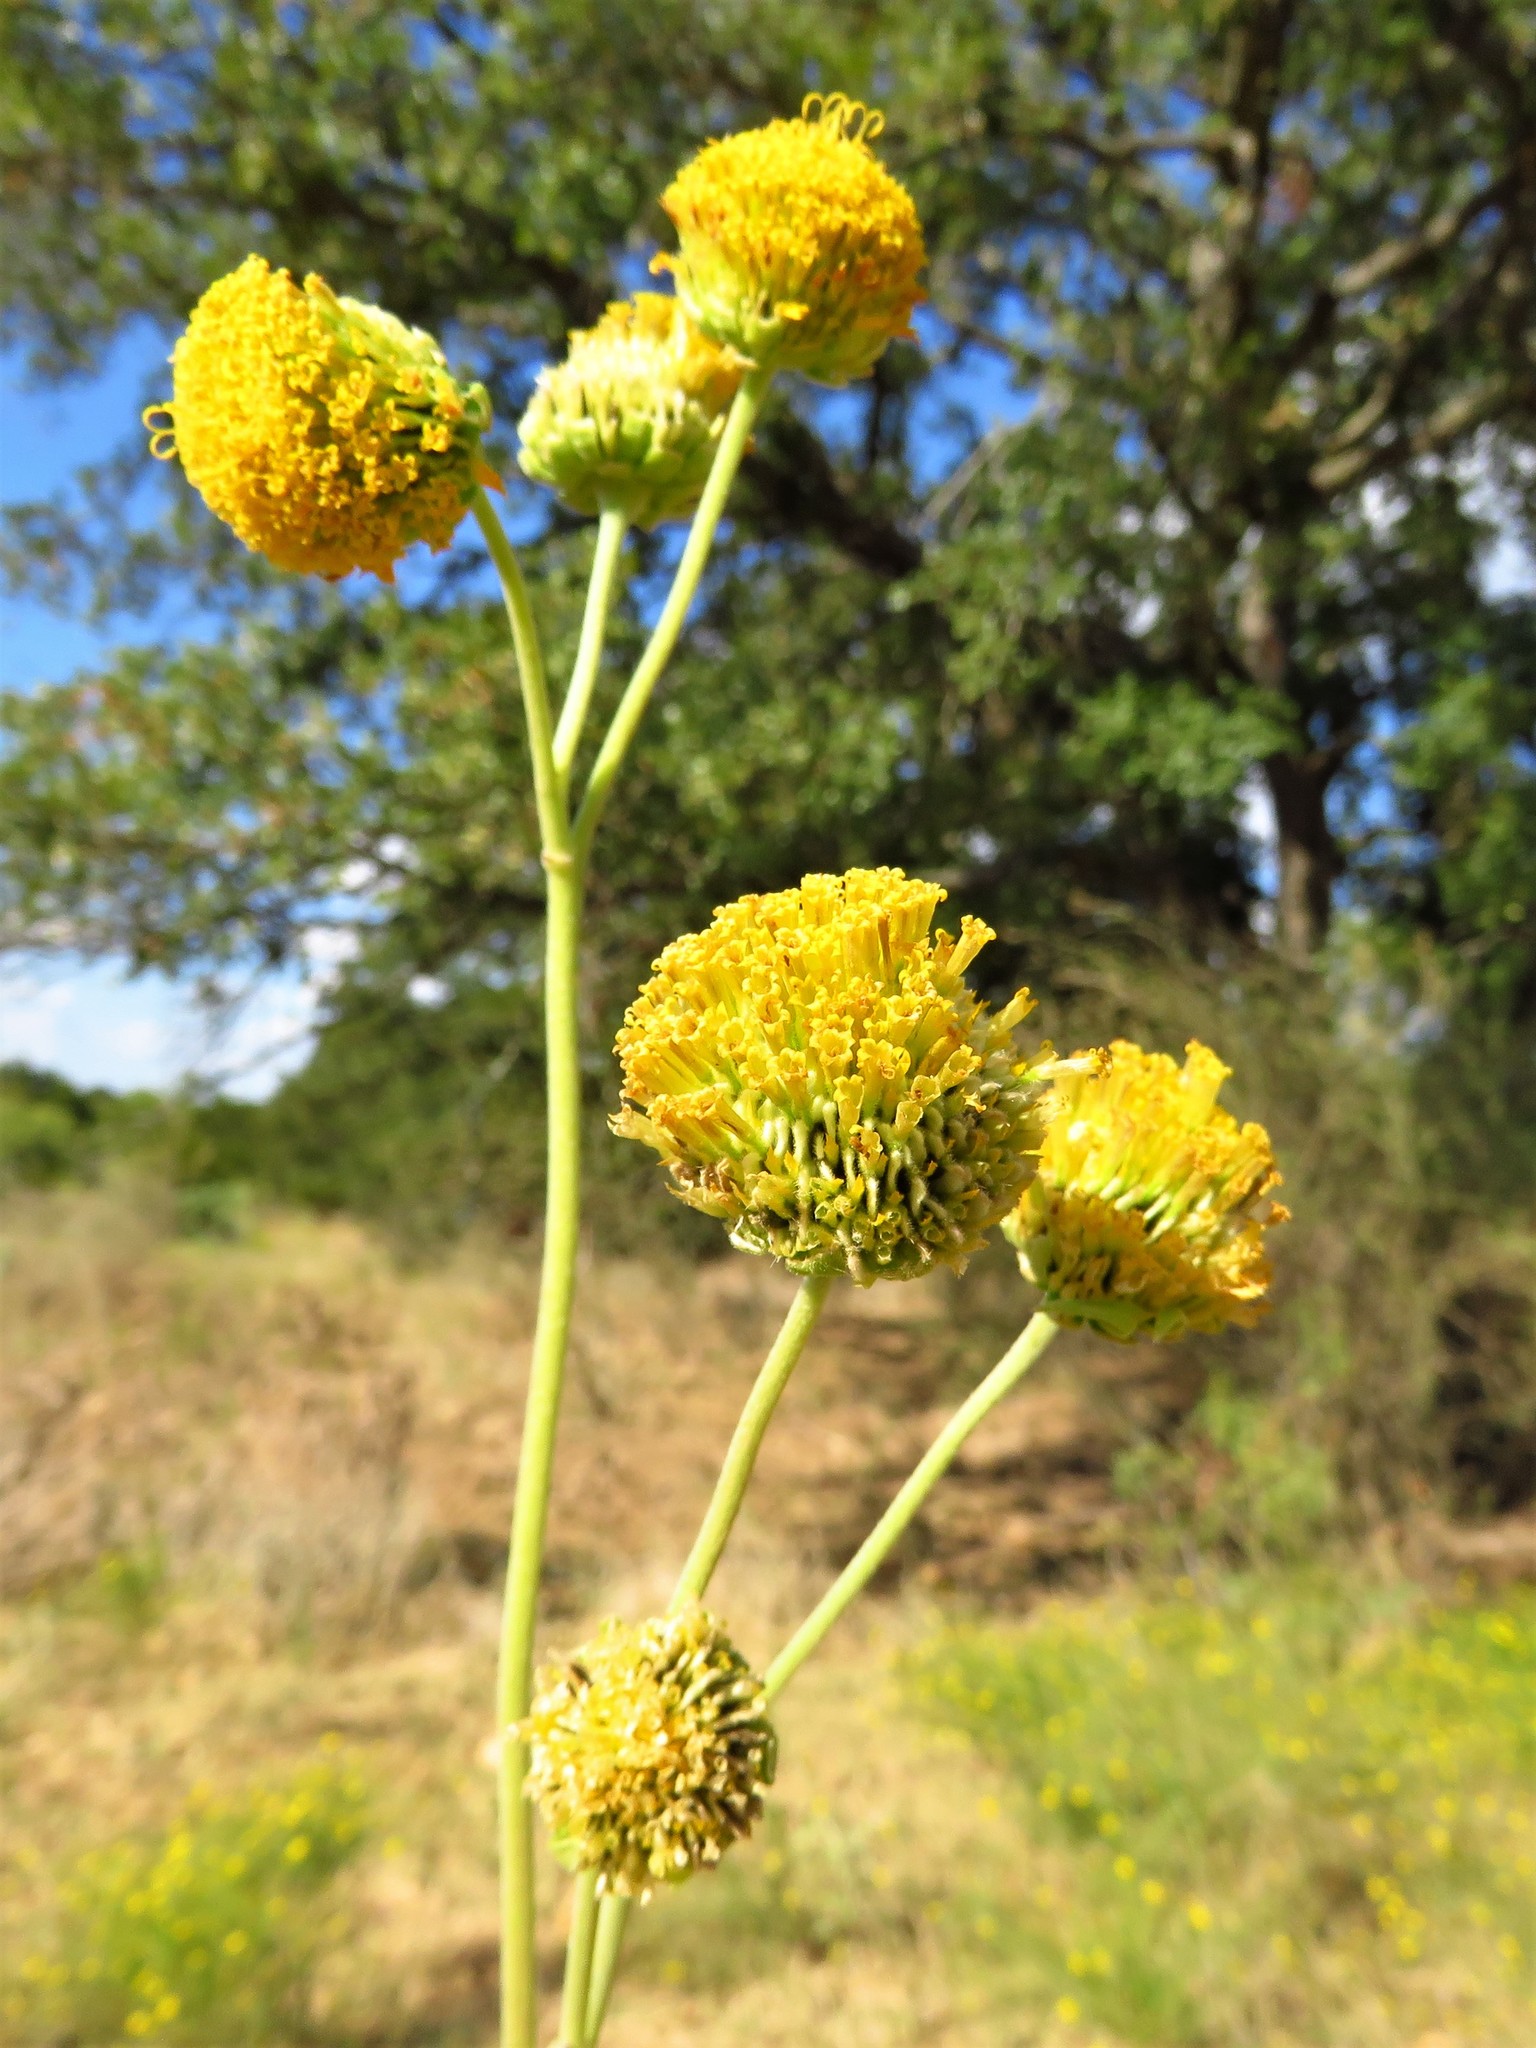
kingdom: Plantae
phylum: Tracheophyta
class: Magnoliopsida
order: Asterales
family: Asteraceae
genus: Verbesina
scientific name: Verbesina encelioides
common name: Golden crownbeard
